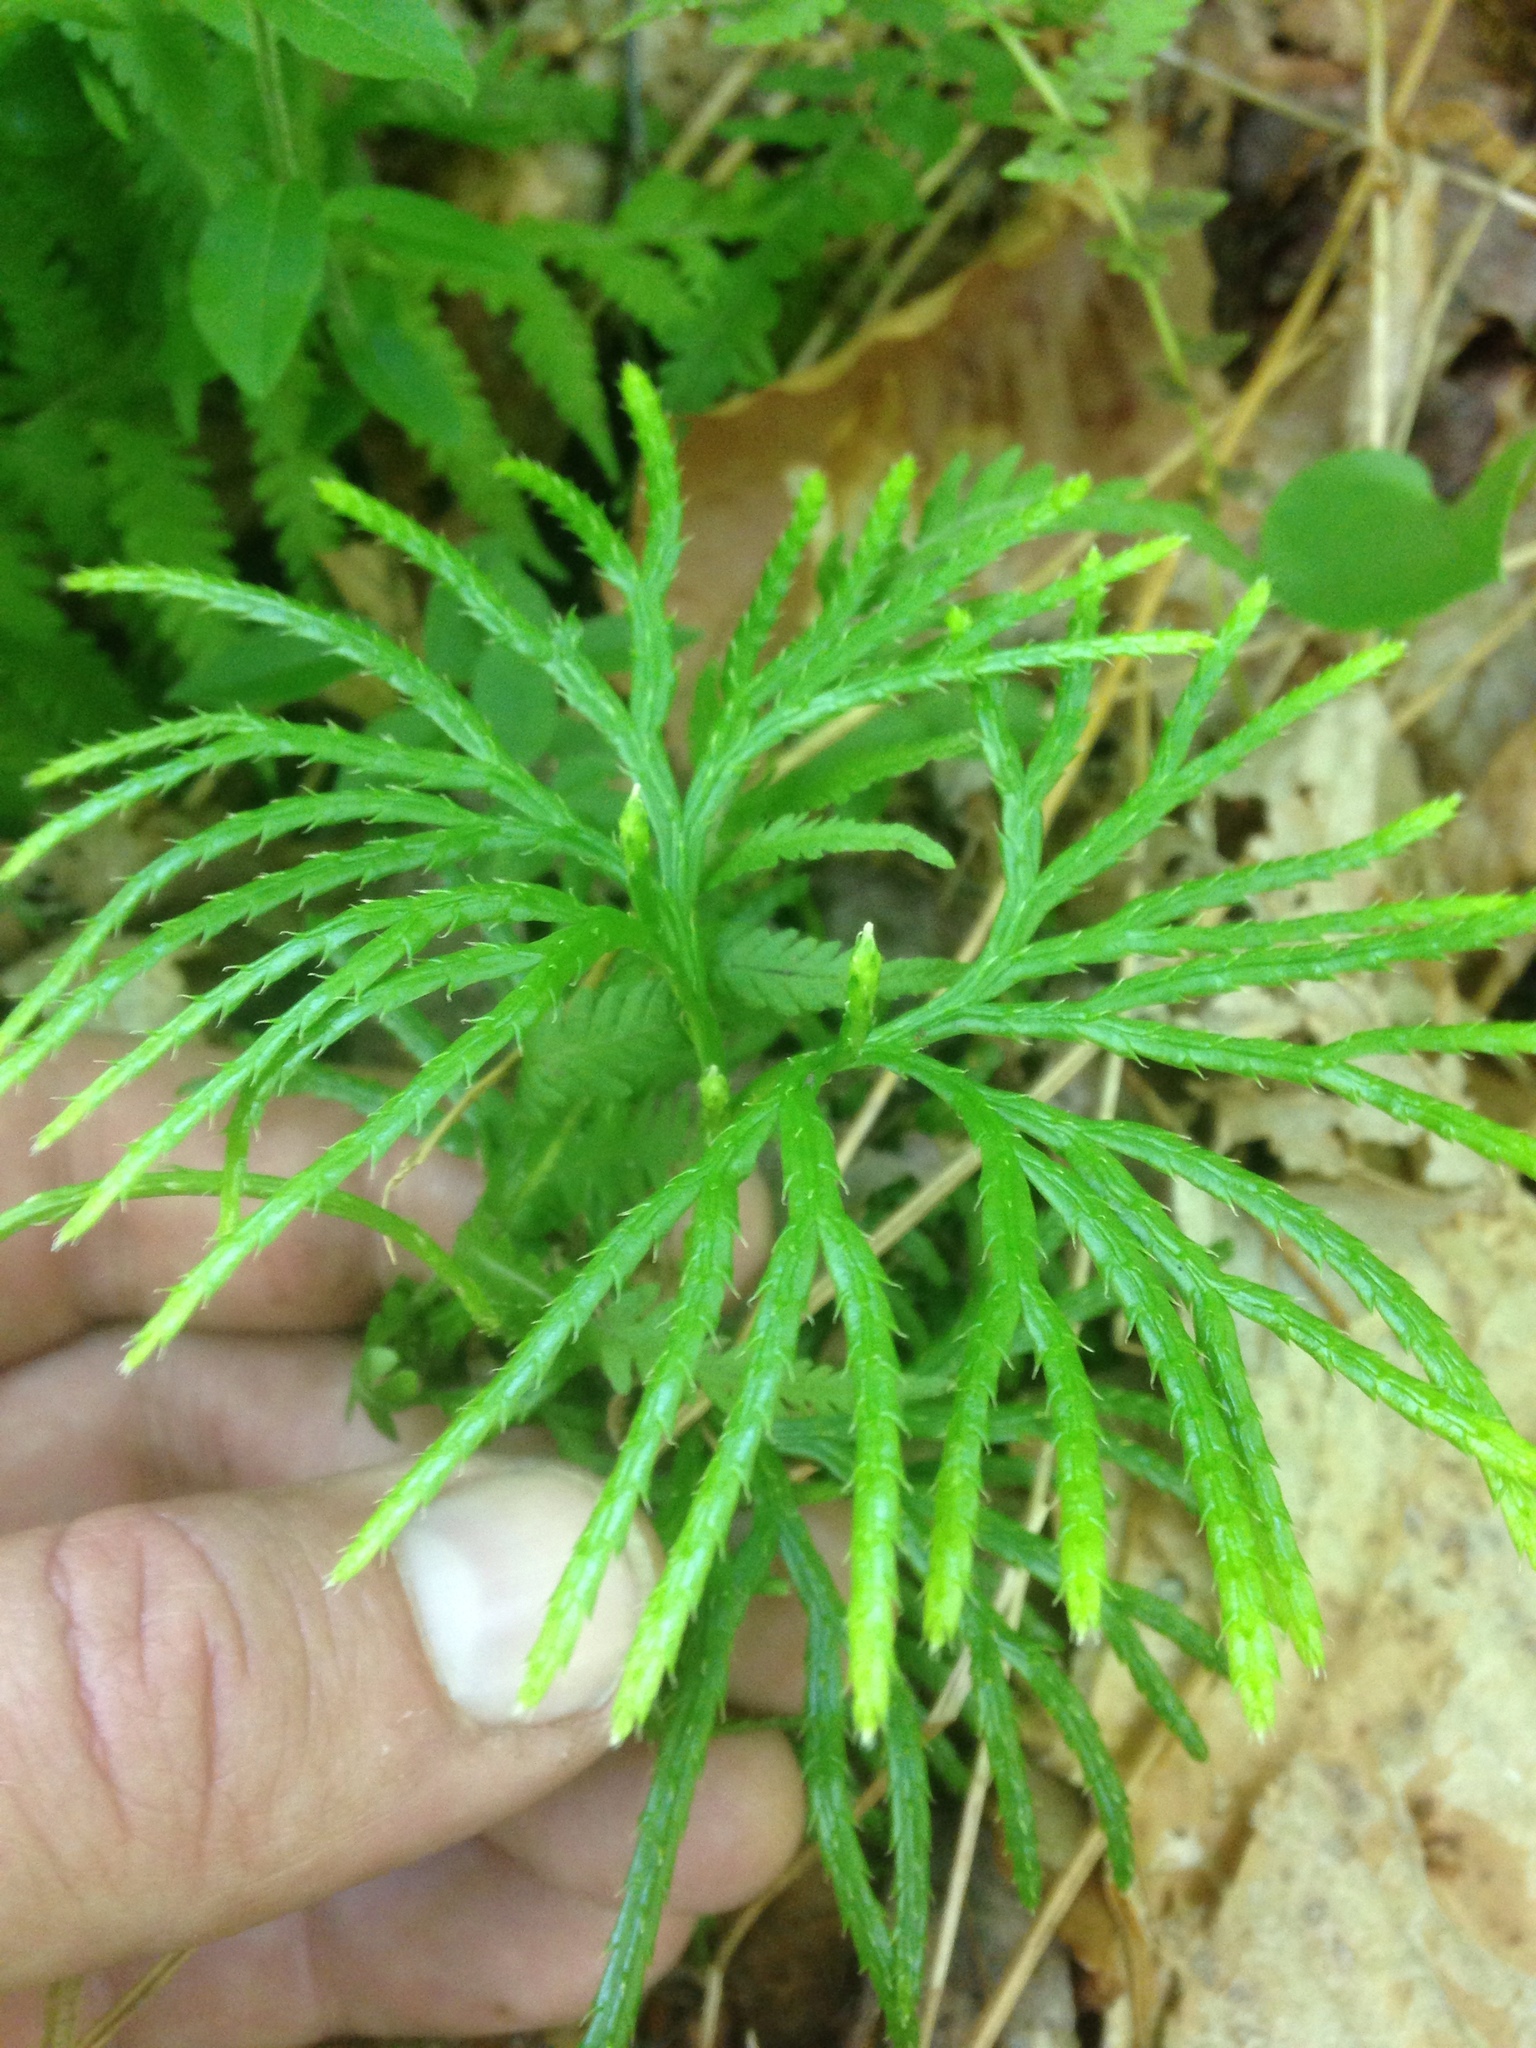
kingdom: Plantae
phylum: Tracheophyta
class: Lycopodiopsida
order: Lycopodiales
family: Lycopodiaceae
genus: Diphasiastrum
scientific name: Diphasiastrum digitatum
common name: Southern running-pine
